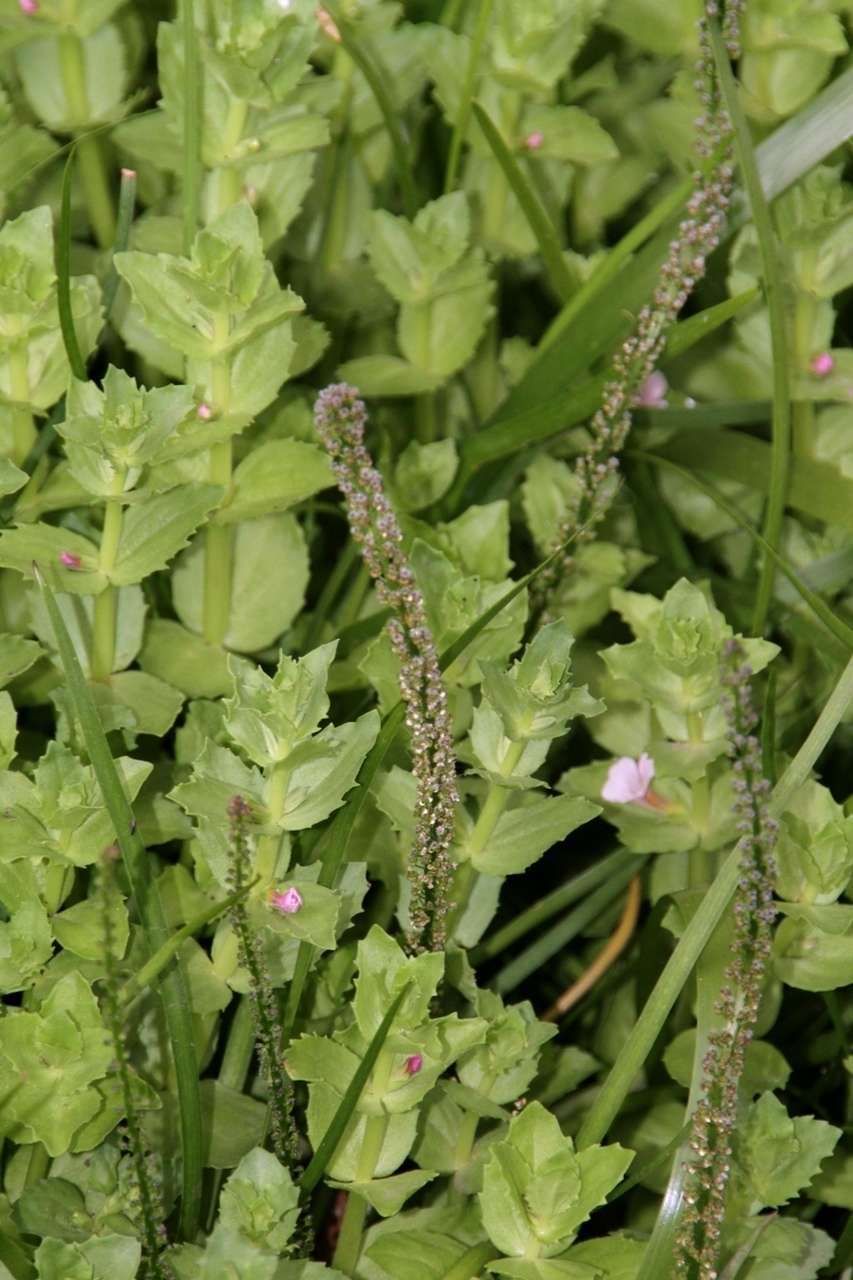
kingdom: Plantae
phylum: Tracheophyta
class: Liliopsida
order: Alismatales
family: Juncaginaceae
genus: Triglochin
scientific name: Triglochin striata
